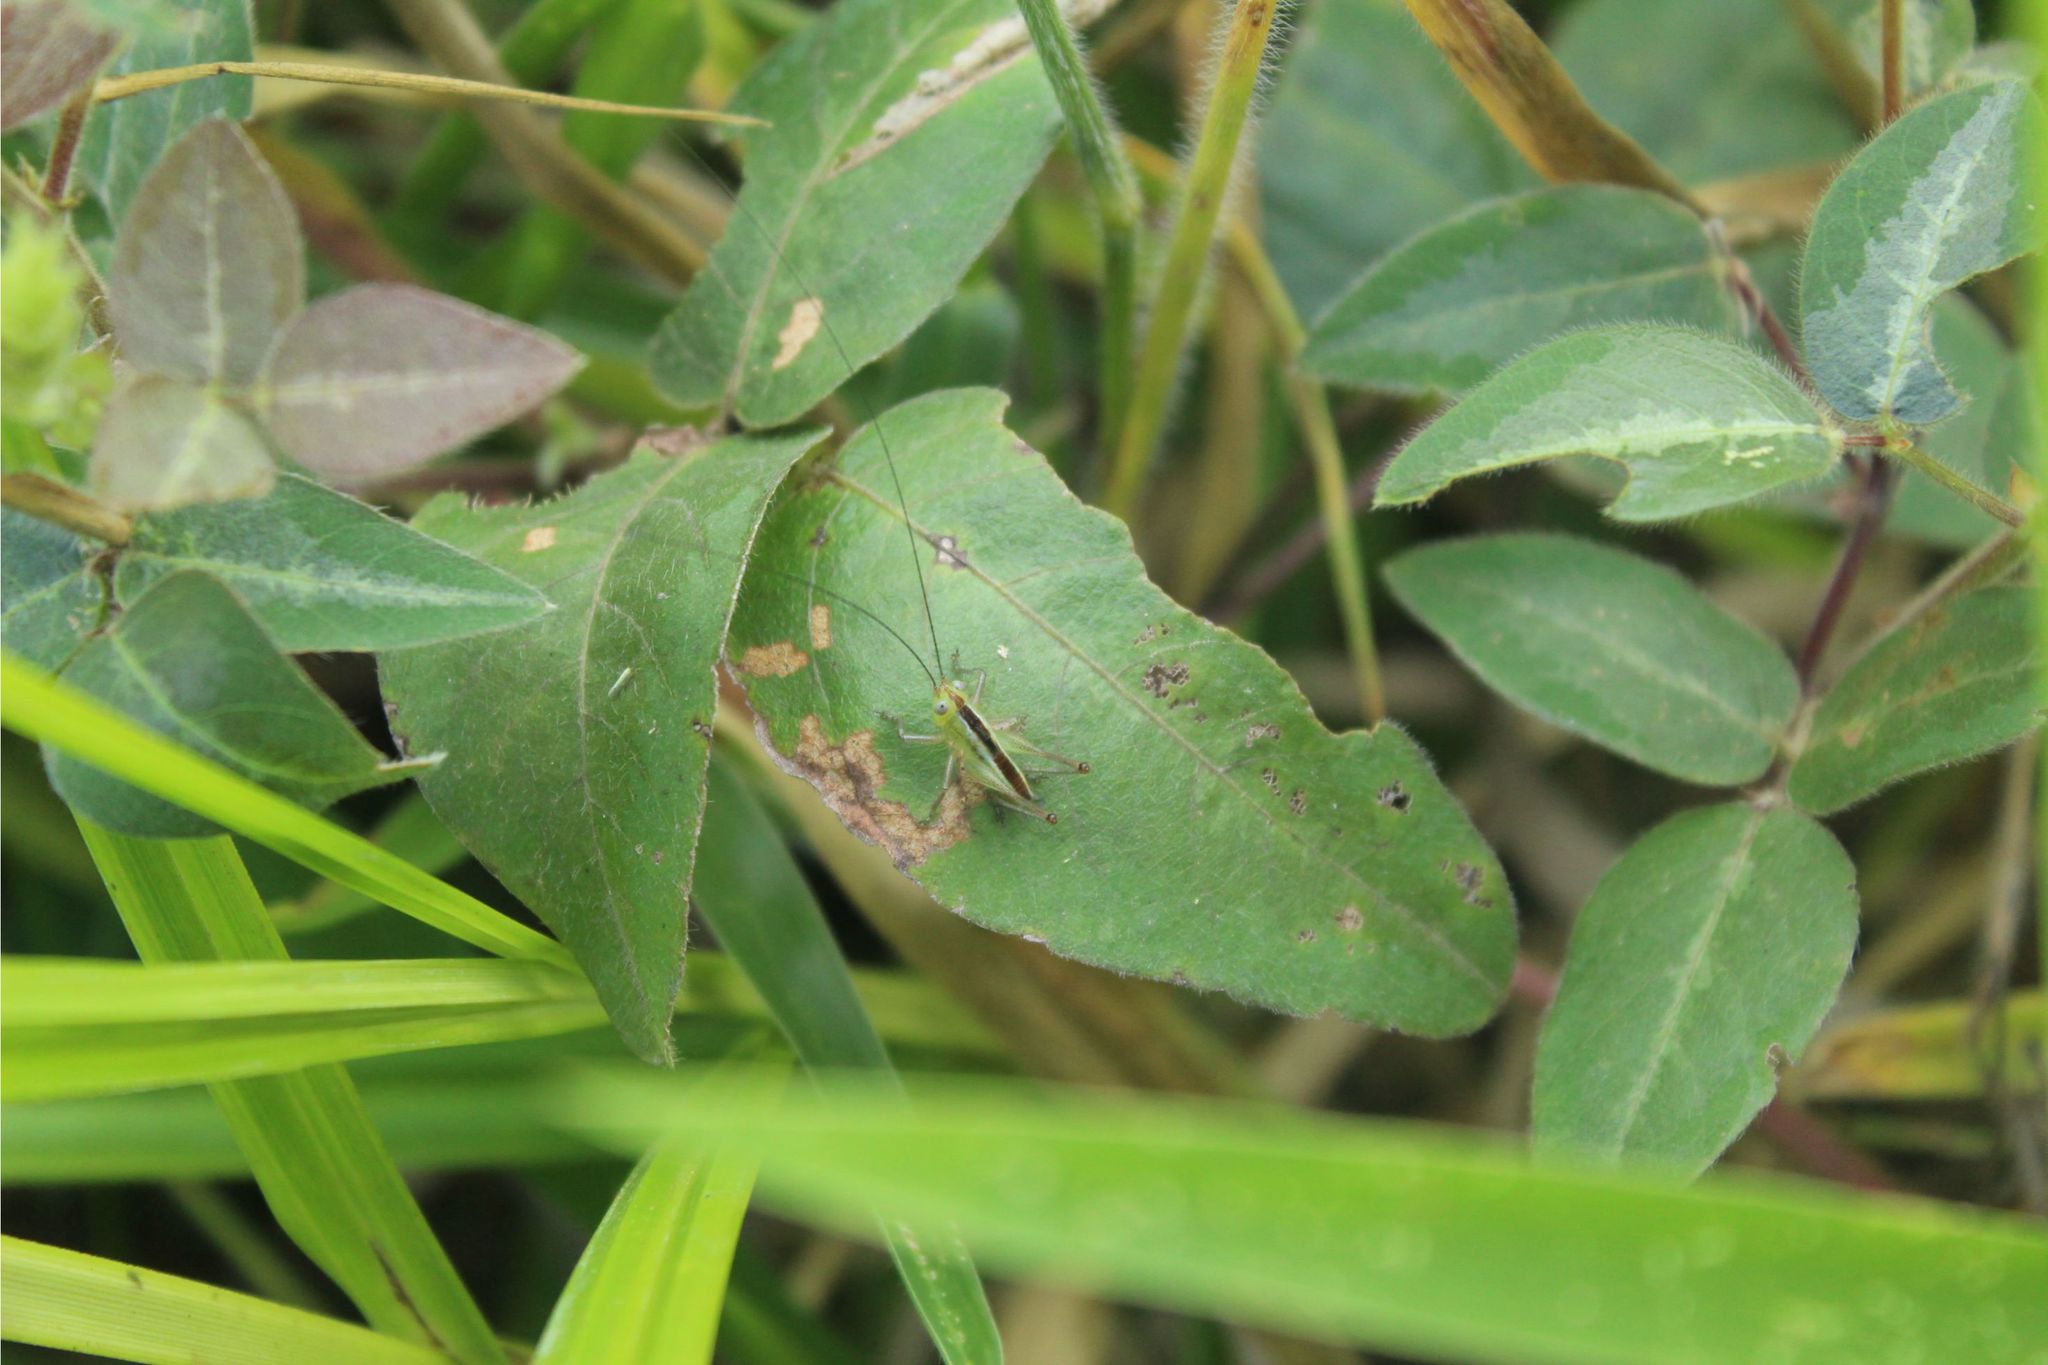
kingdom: Animalia
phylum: Arthropoda
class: Insecta
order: Orthoptera
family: Tettigoniidae
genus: Conocephalus
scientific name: Conocephalus
